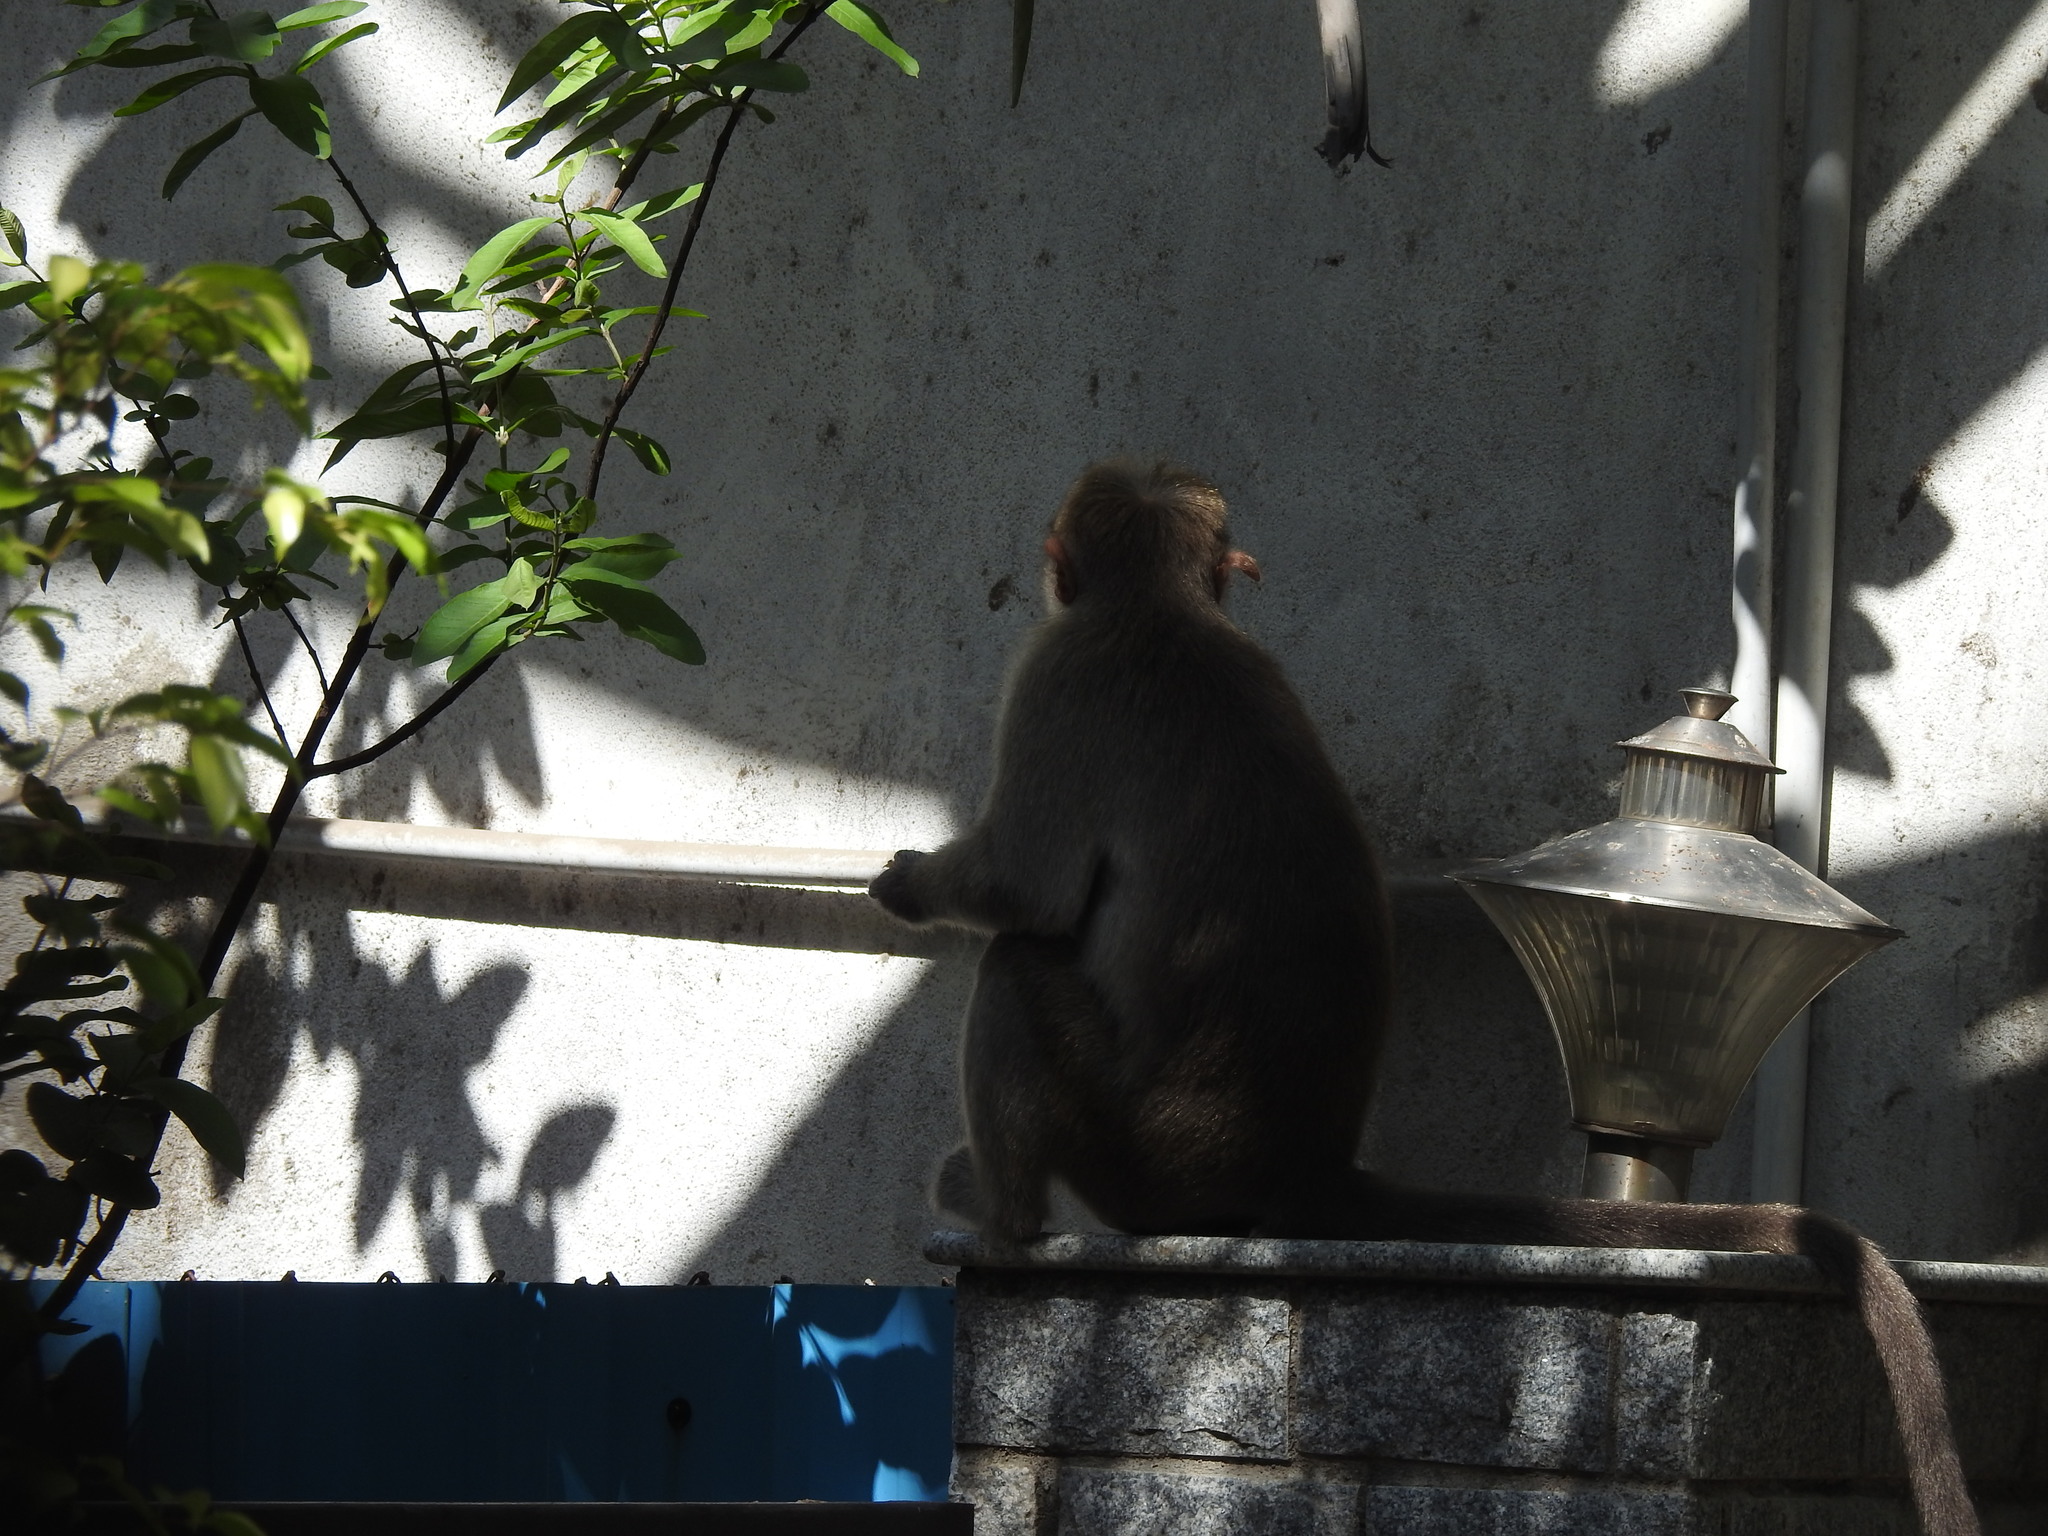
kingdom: Animalia
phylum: Chordata
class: Mammalia
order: Primates
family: Cercopithecidae
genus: Macaca
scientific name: Macaca radiata
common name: Bonnet macaque
